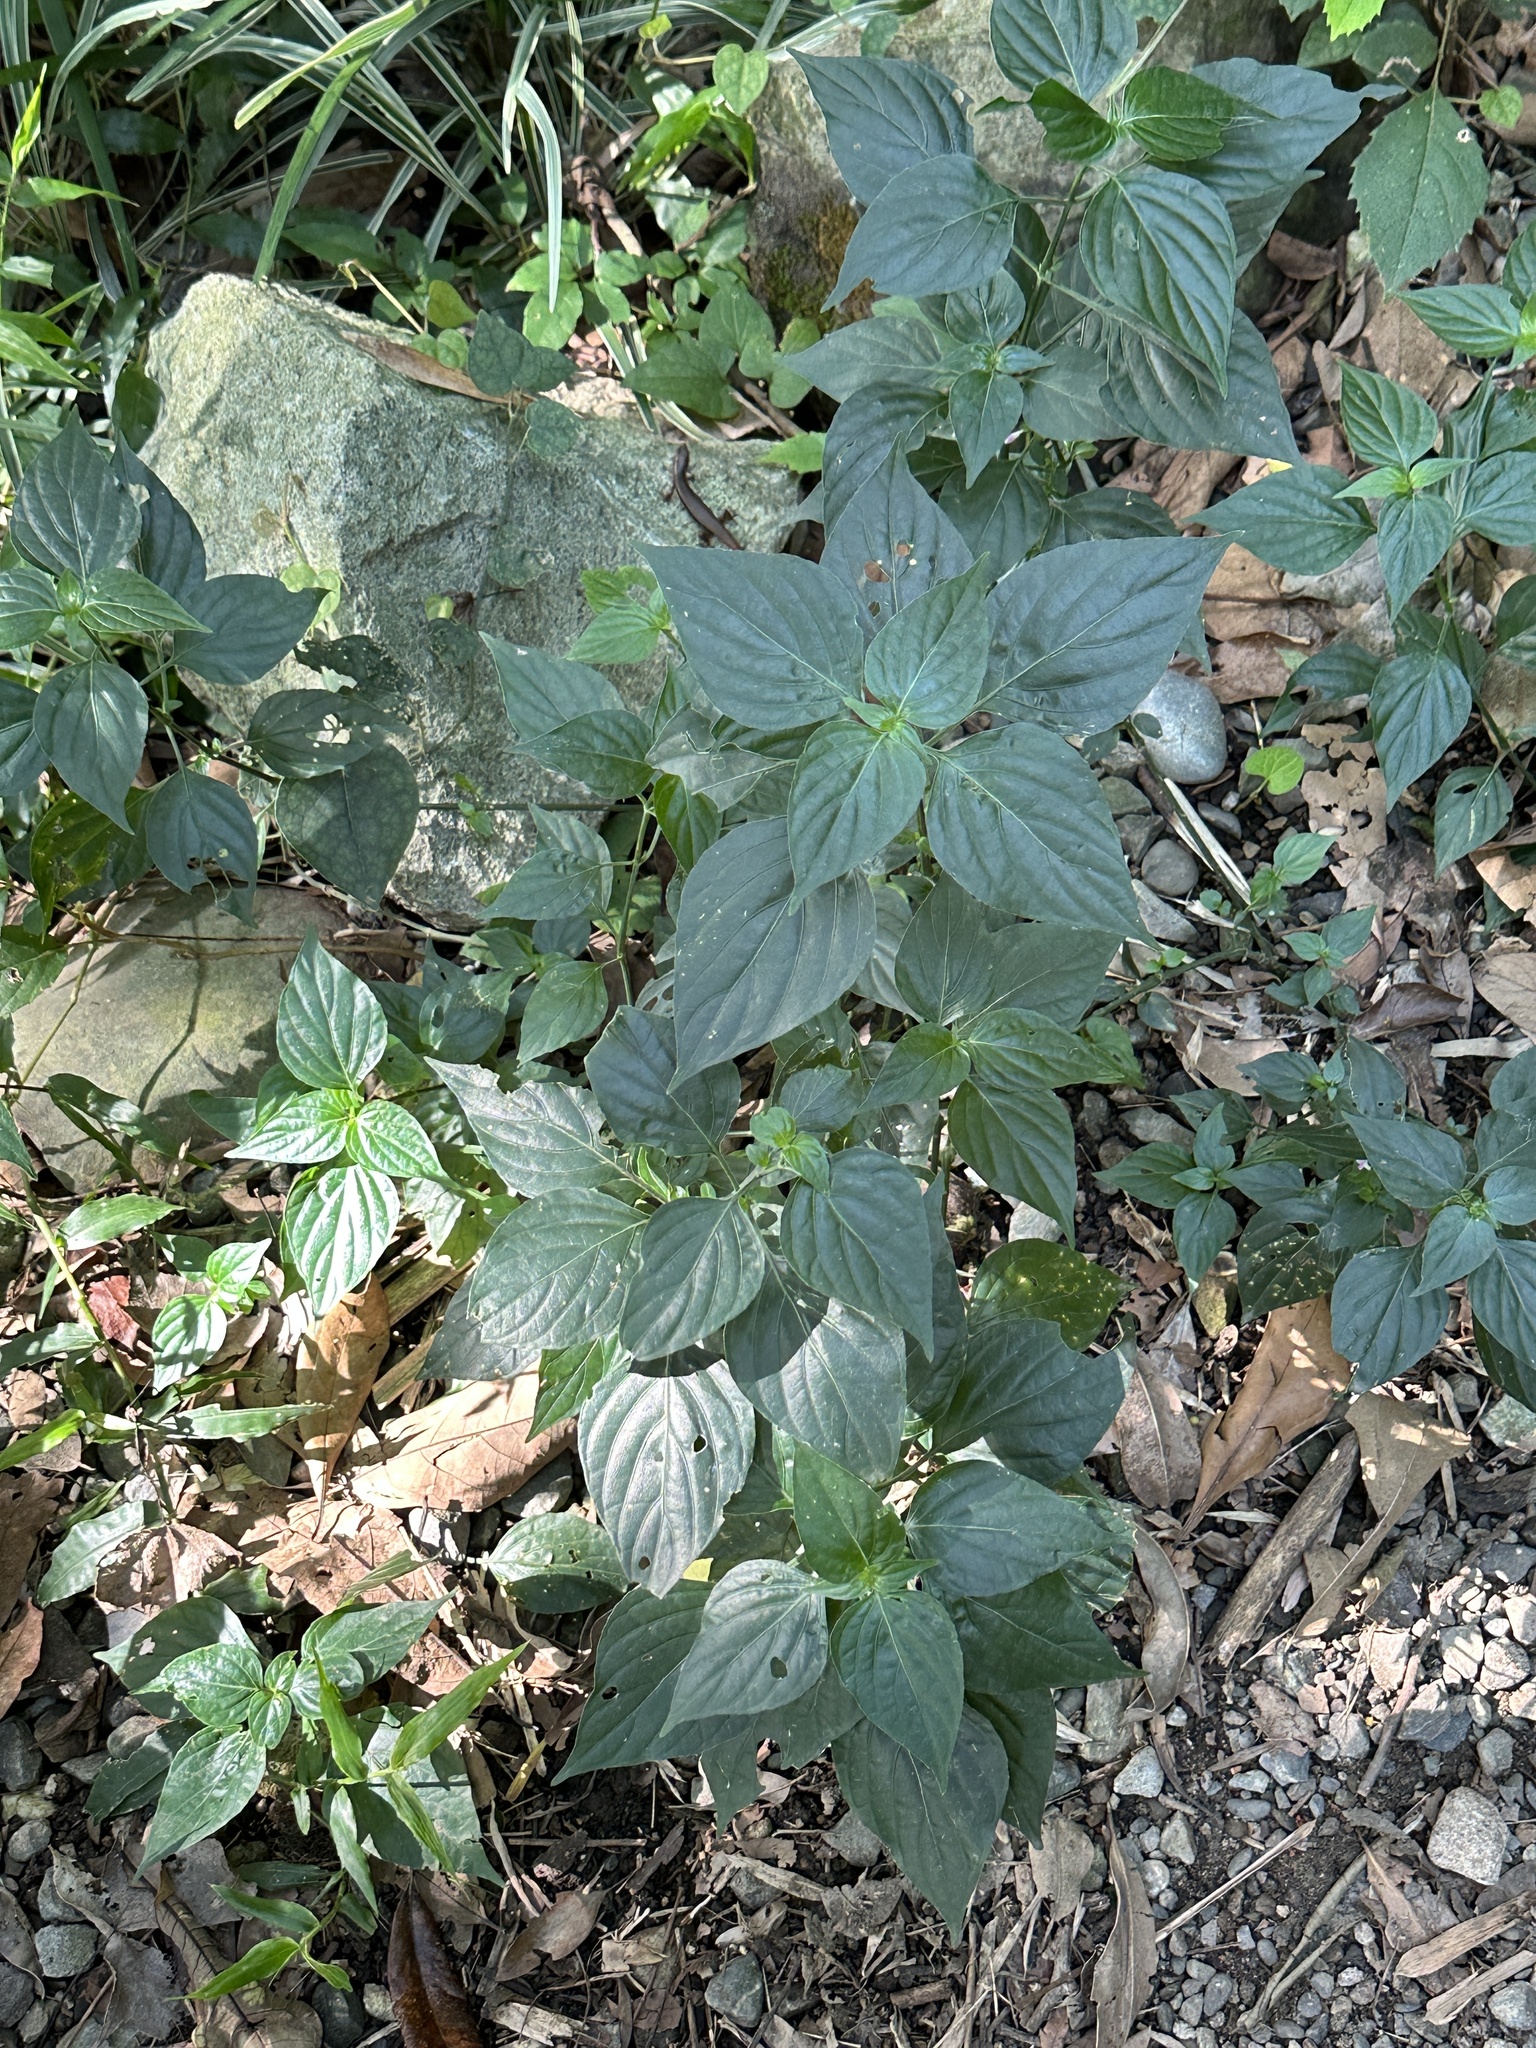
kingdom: Plantae
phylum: Tracheophyta
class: Magnoliopsida
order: Lamiales
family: Acanthaceae
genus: Dicliptera
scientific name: Dicliptera chinensis
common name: Chinese foldwing
